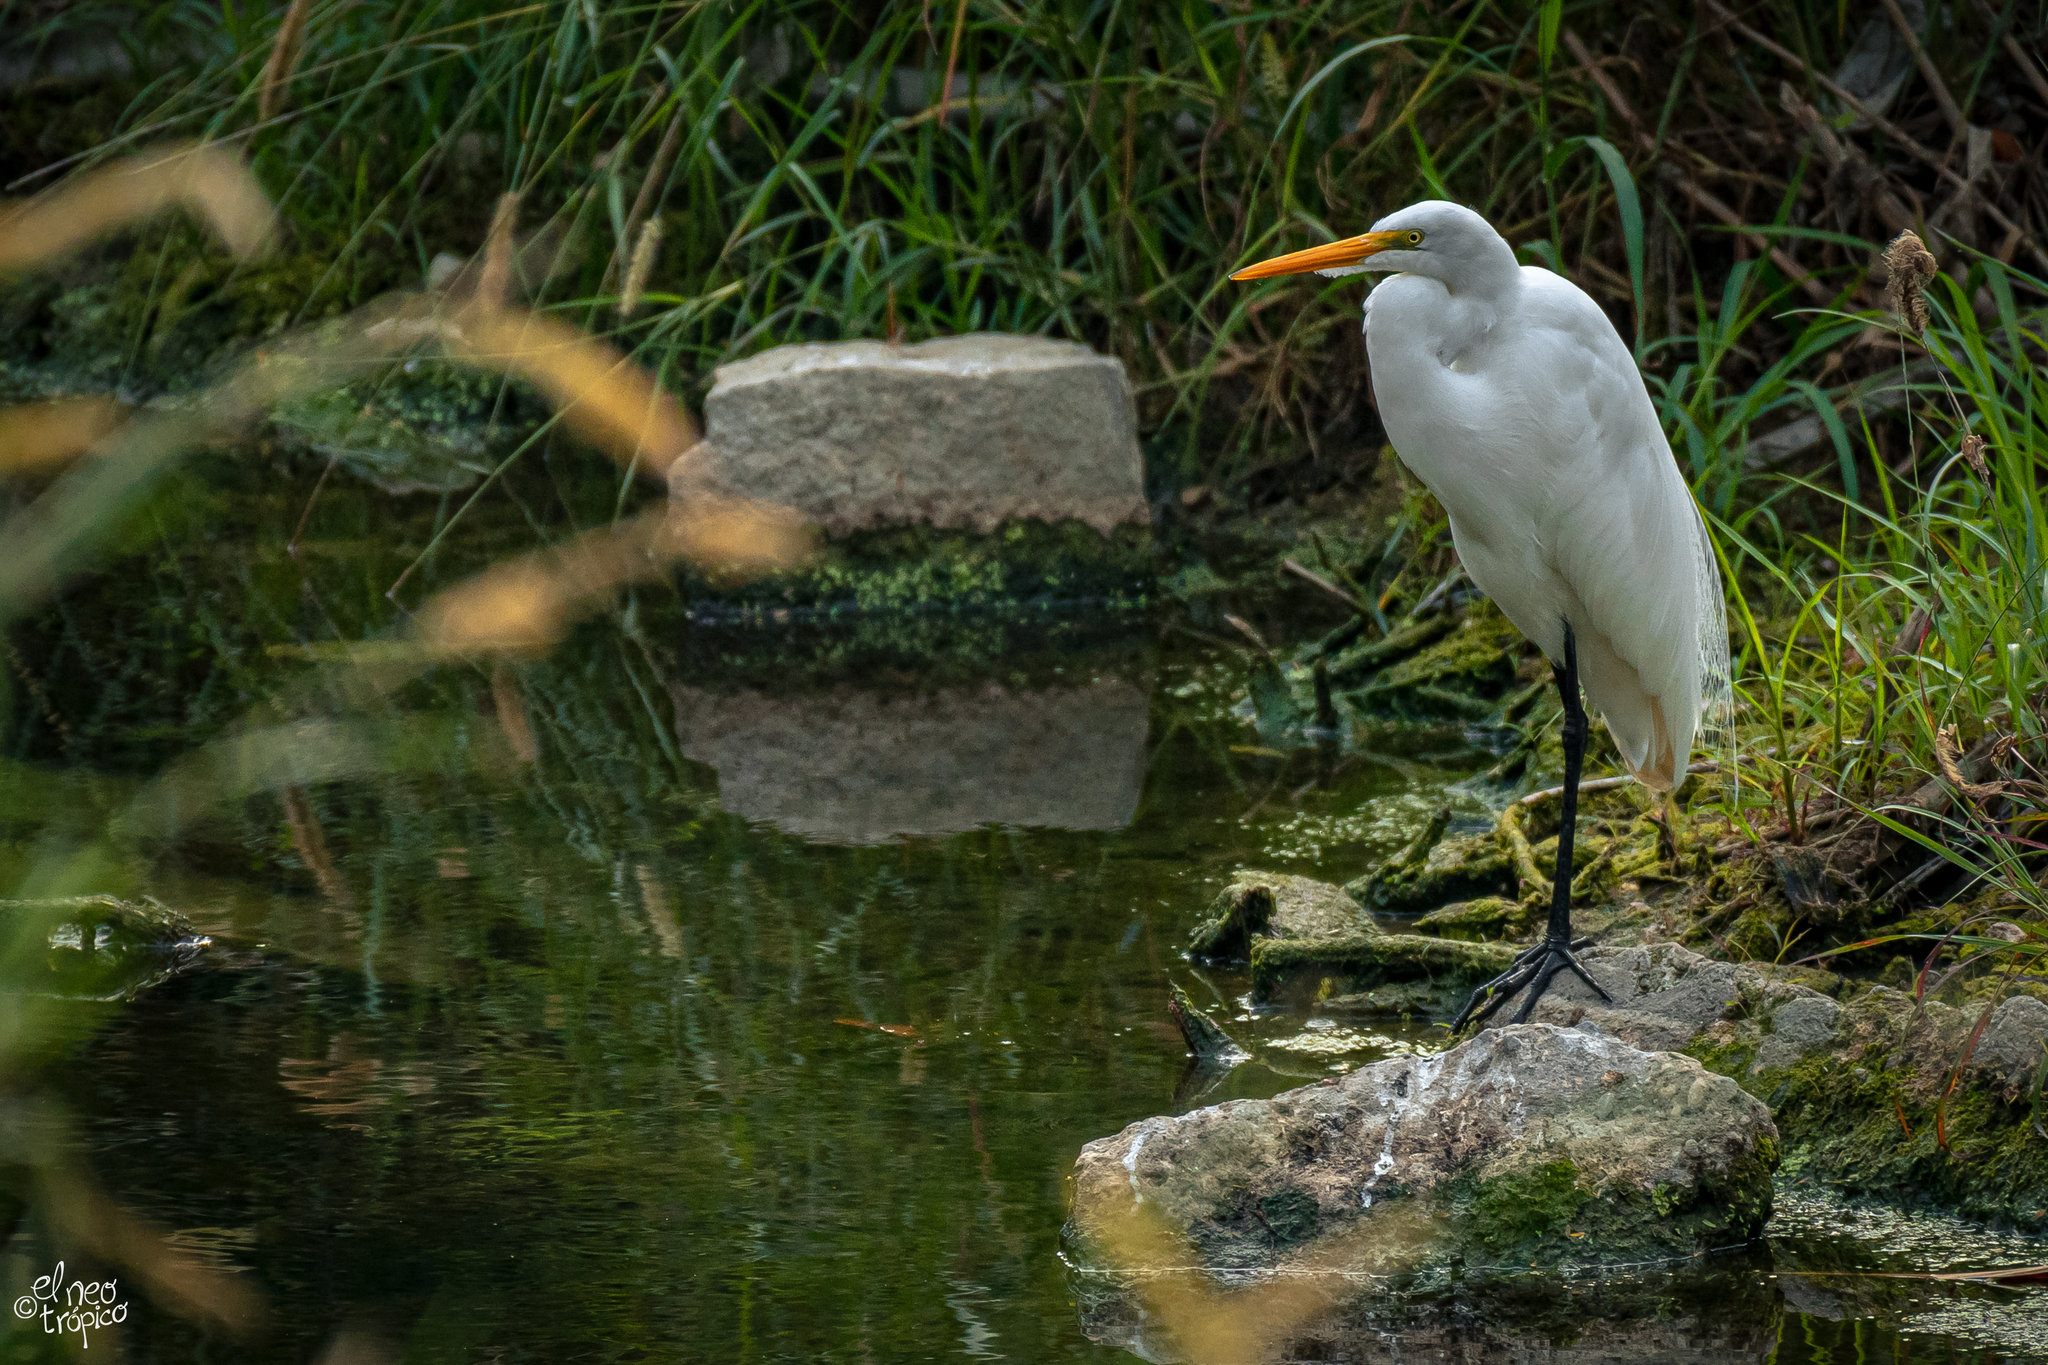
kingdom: Animalia
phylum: Chordata
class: Aves
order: Pelecaniformes
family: Ardeidae
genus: Ardea
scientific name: Ardea alba
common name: Great egret
